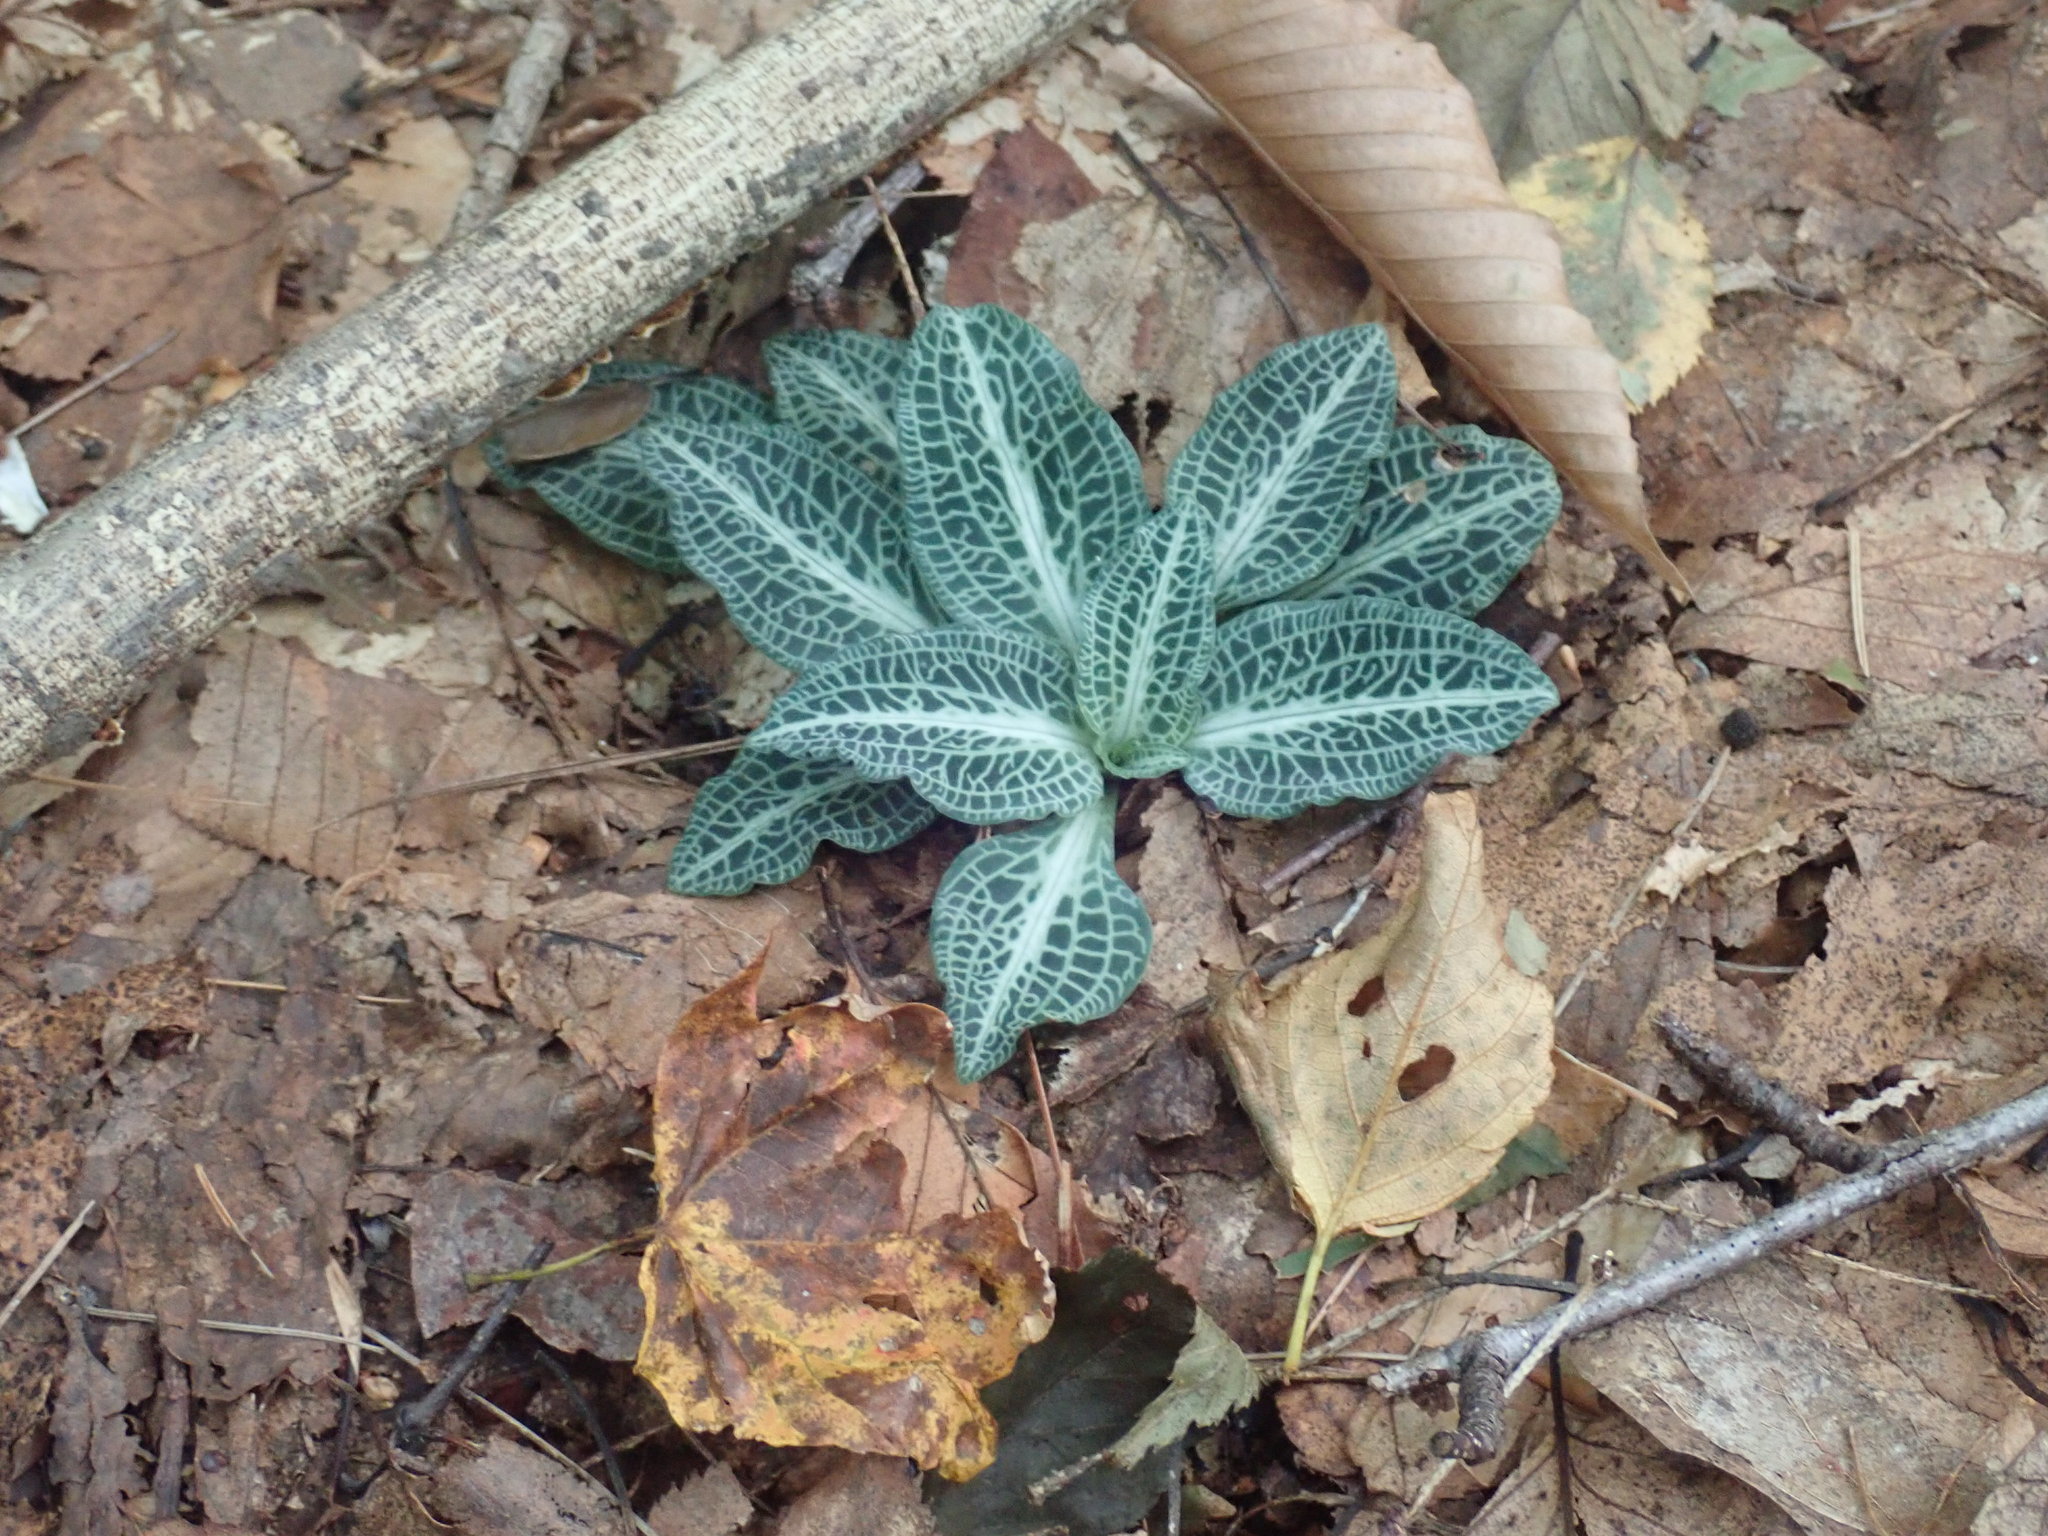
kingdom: Plantae
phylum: Tracheophyta
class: Liliopsida
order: Asparagales
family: Orchidaceae
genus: Goodyera
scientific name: Goodyera pubescens
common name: Downy rattlesnake-plantain
